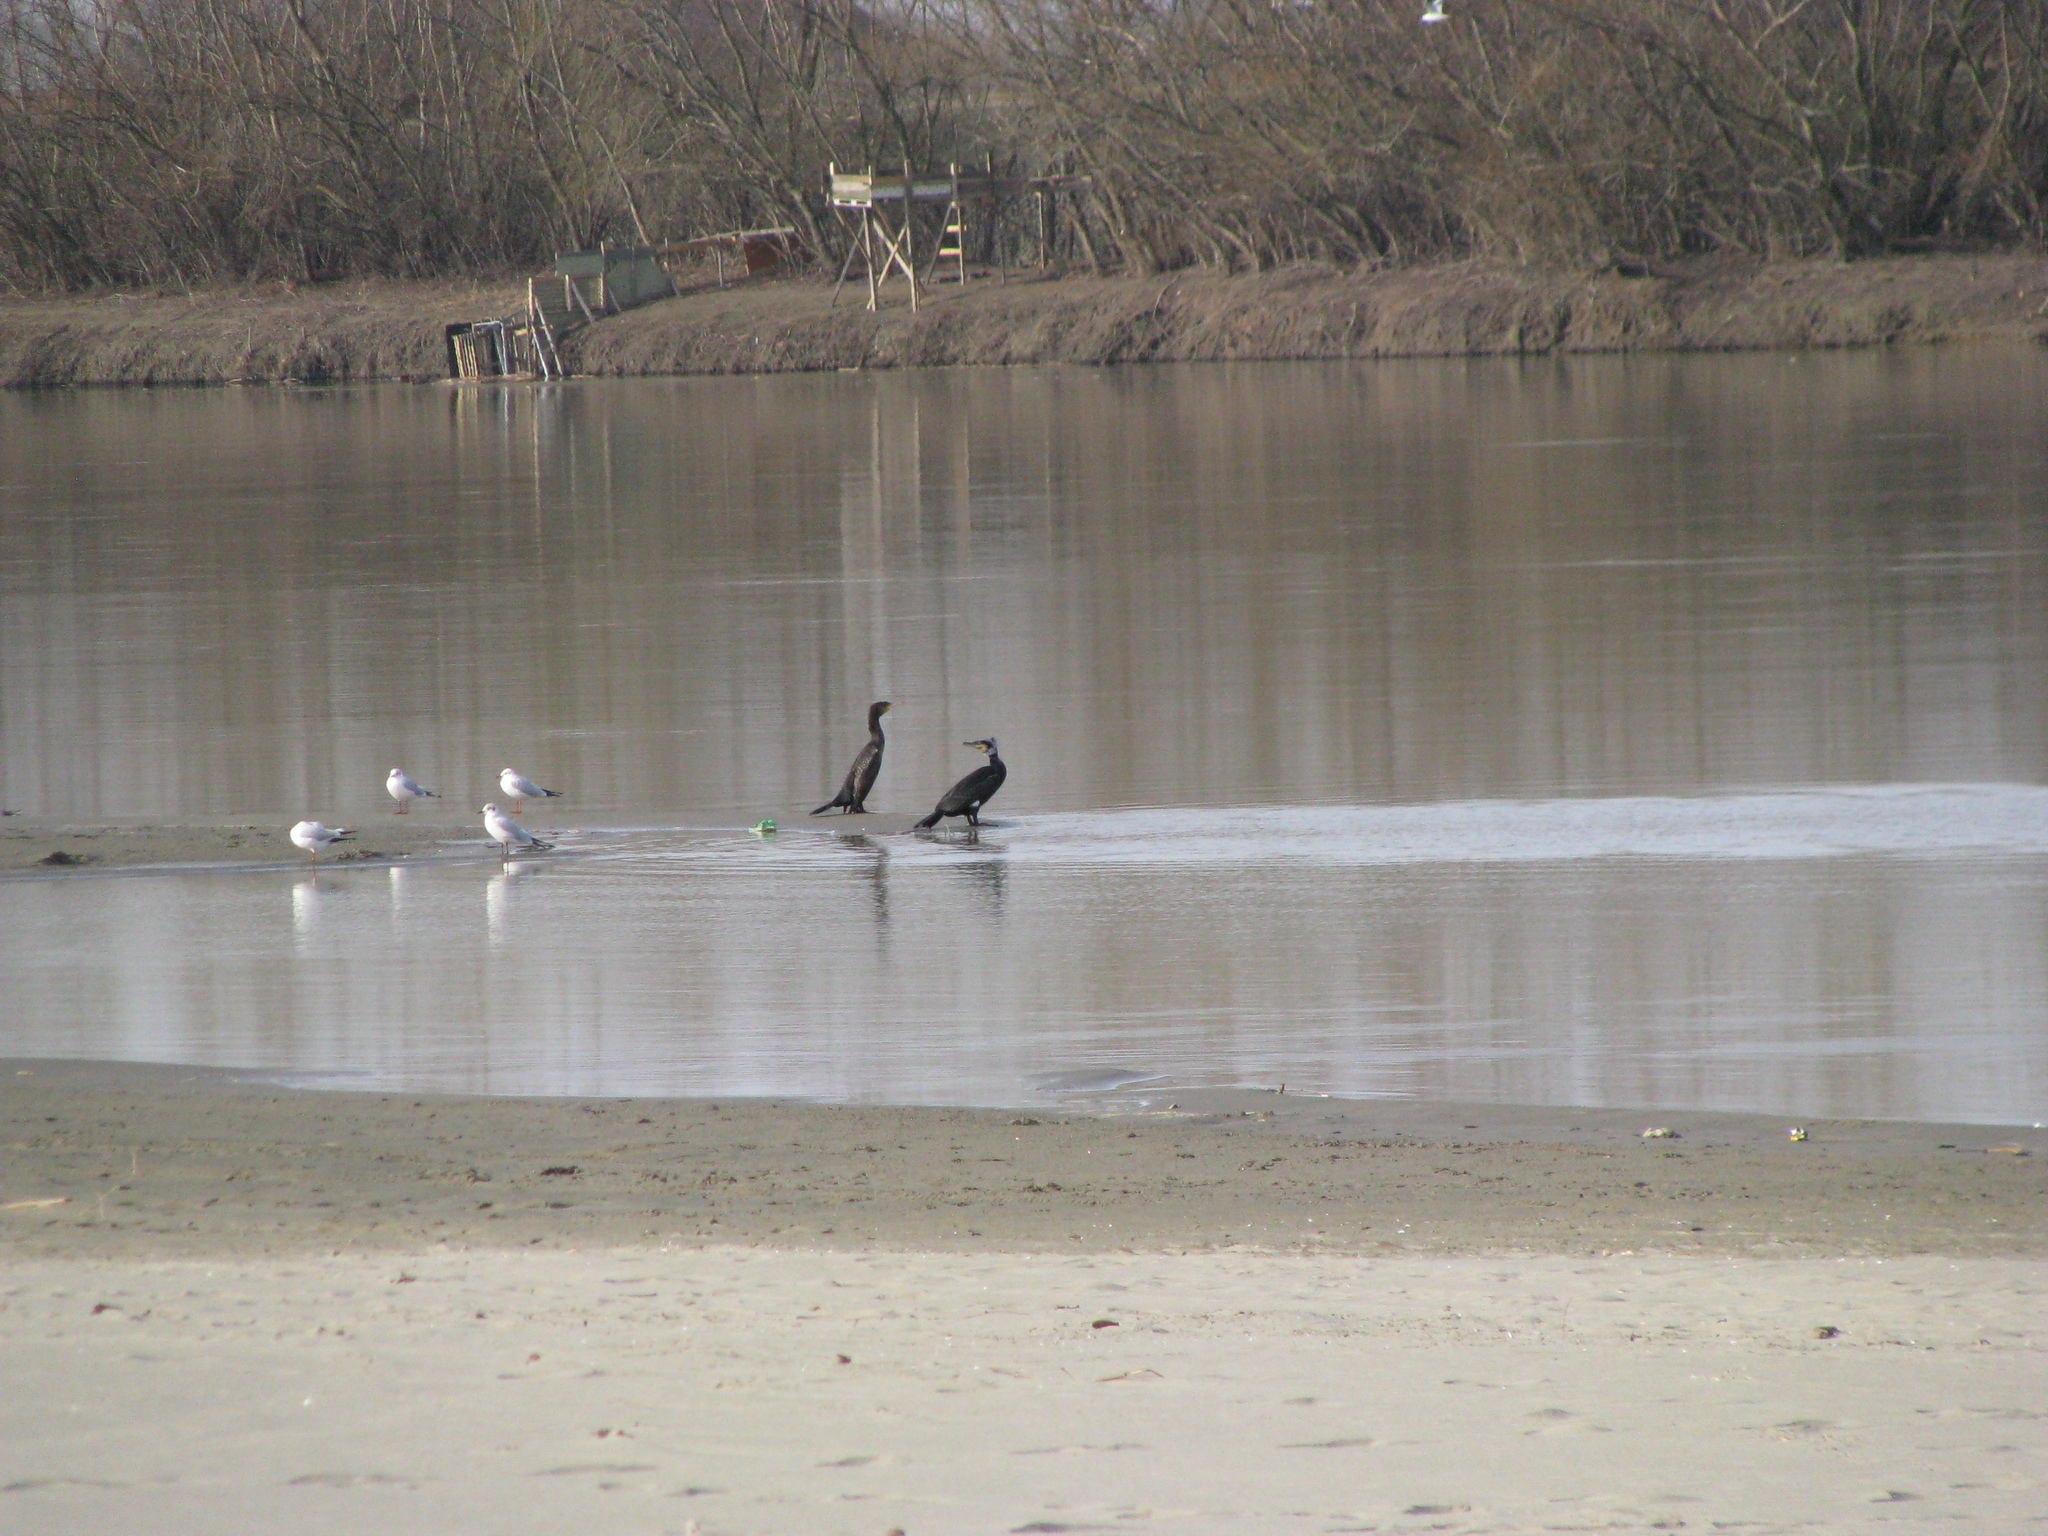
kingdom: Animalia
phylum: Chordata
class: Aves
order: Suliformes
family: Phalacrocoracidae
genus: Phalacrocorax
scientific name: Phalacrocorax carbo
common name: Great cormorant
